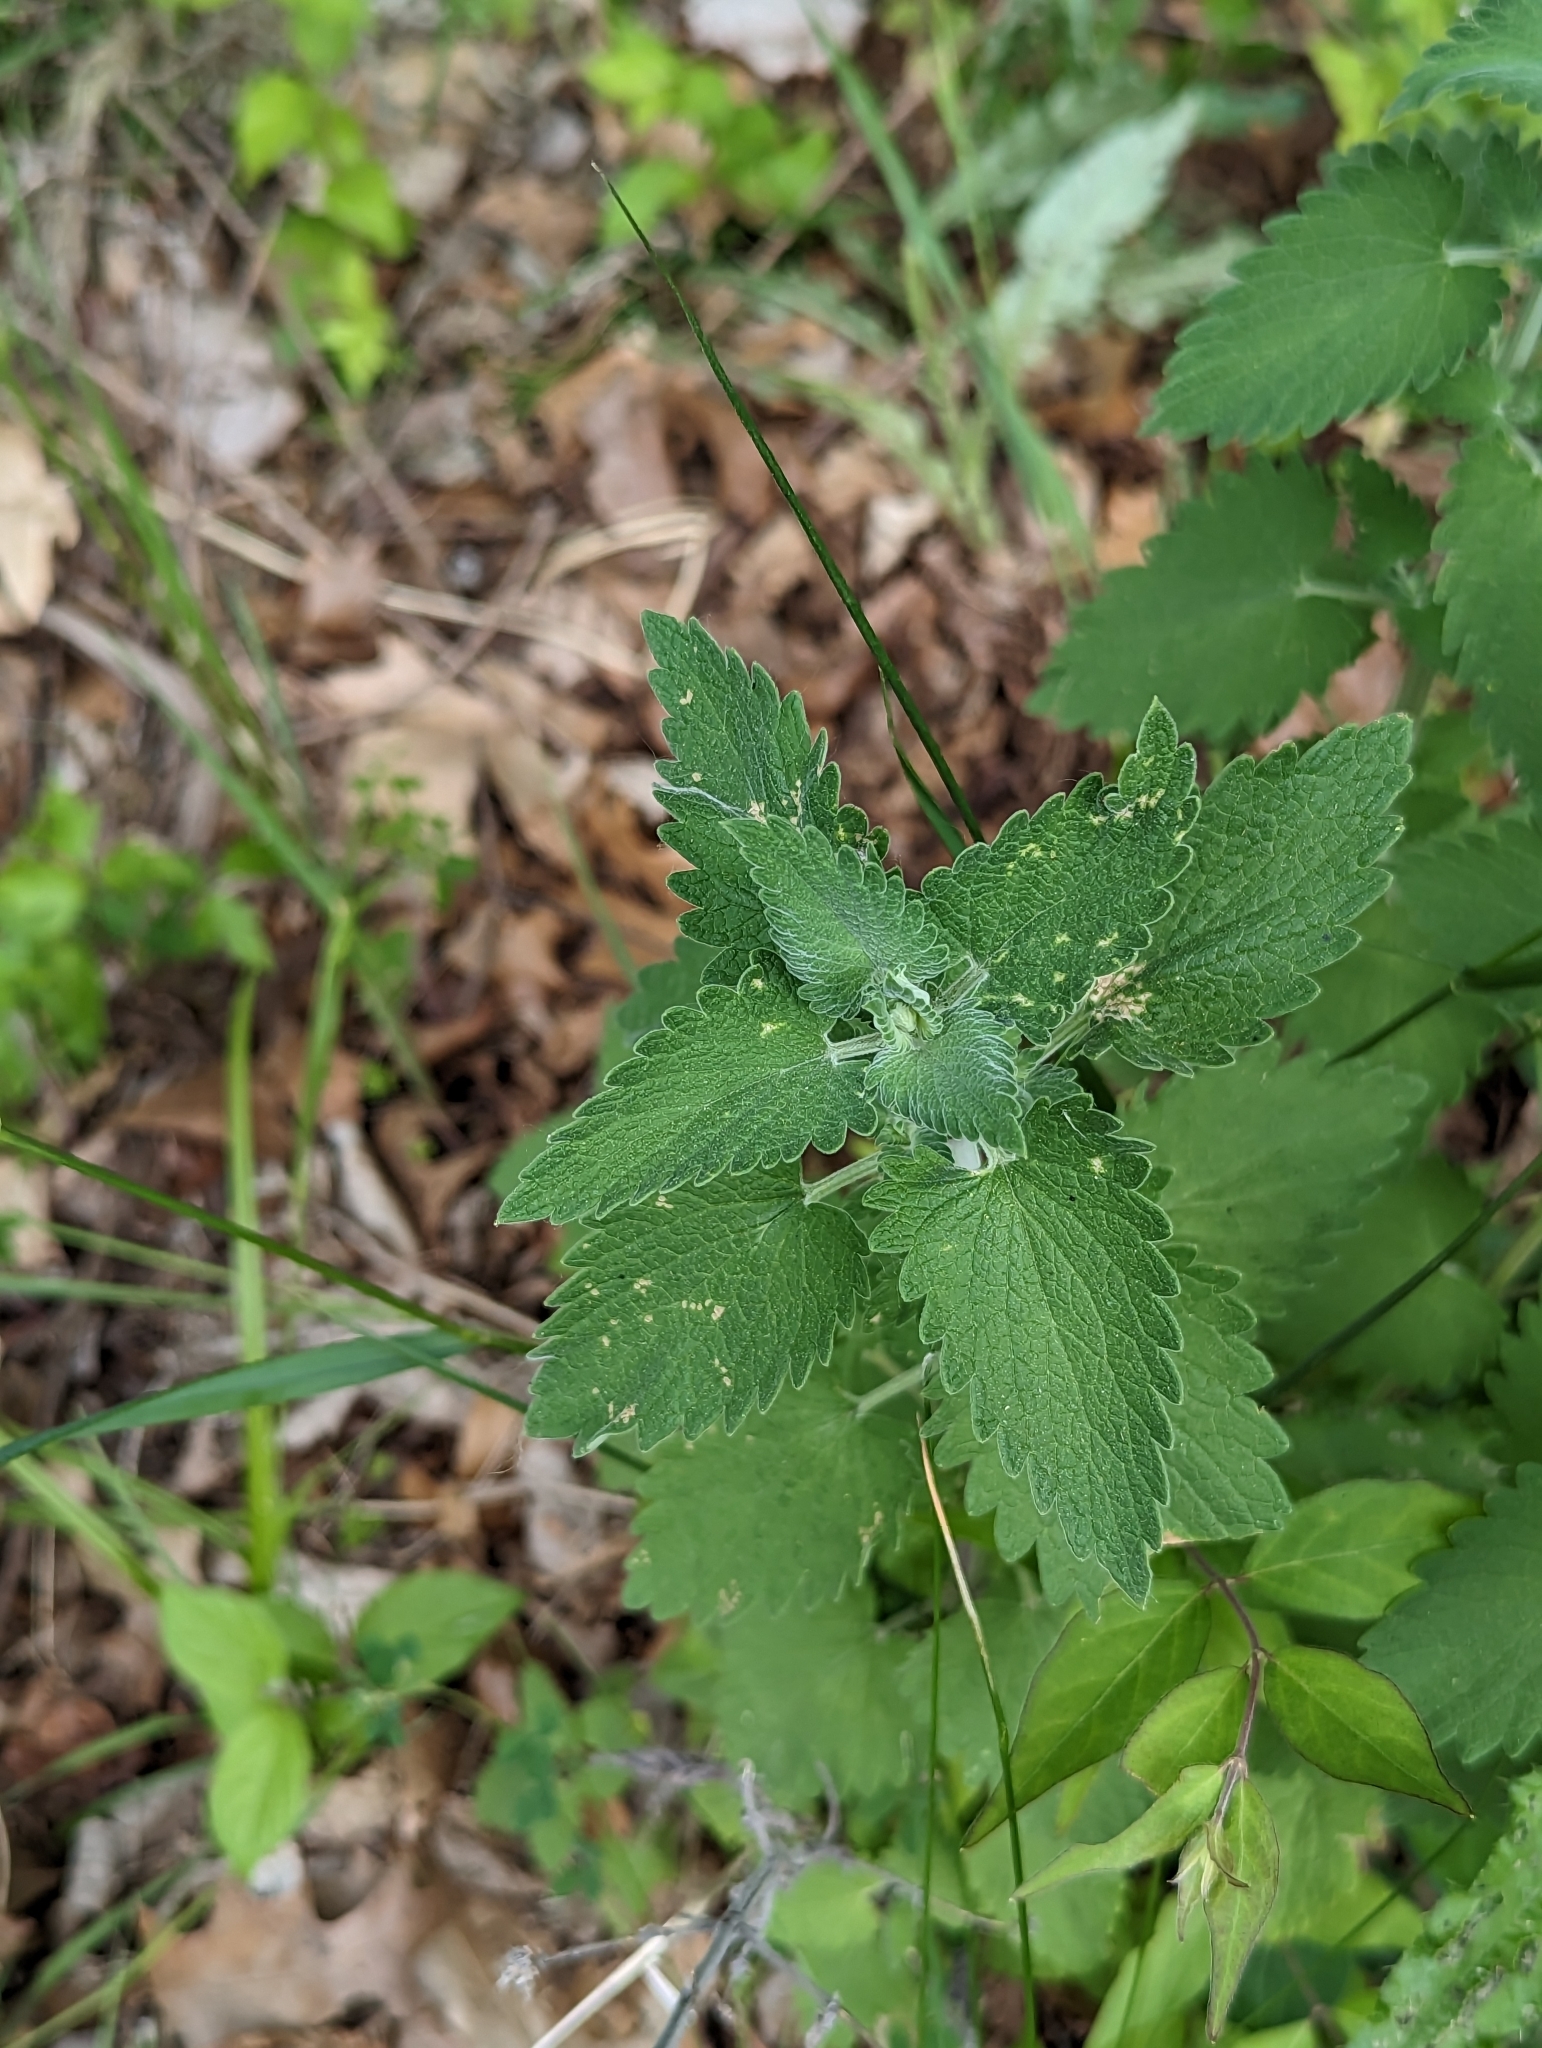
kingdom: Plantae
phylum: Tracheophyta
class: Magnoliopsida
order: Lamiales
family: Lamiaceae
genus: Nepeta
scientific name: Nepeta cataria
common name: Catnip
